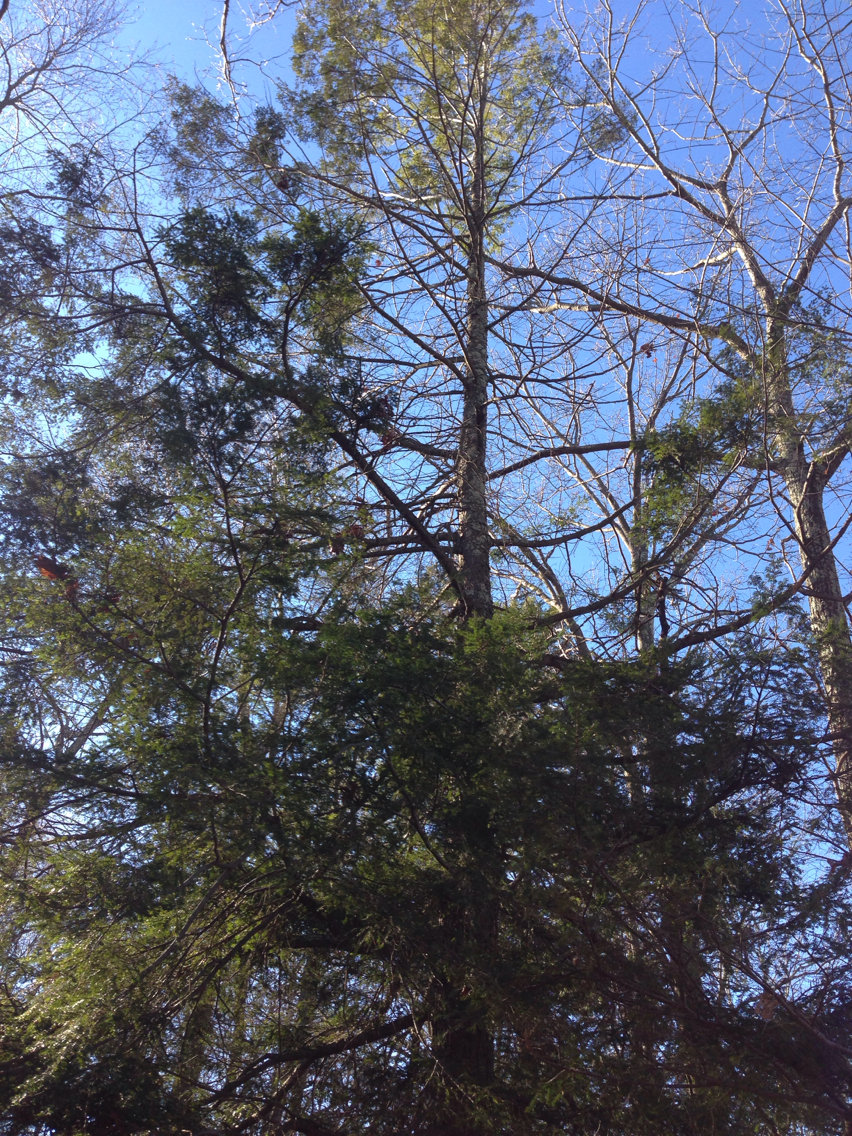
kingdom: Plantae
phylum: Tracheophyta
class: Pinopsida
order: Pinales
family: Pinaceae
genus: Tsuga
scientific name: Tsuga canadensis
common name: Eastern hemlock
